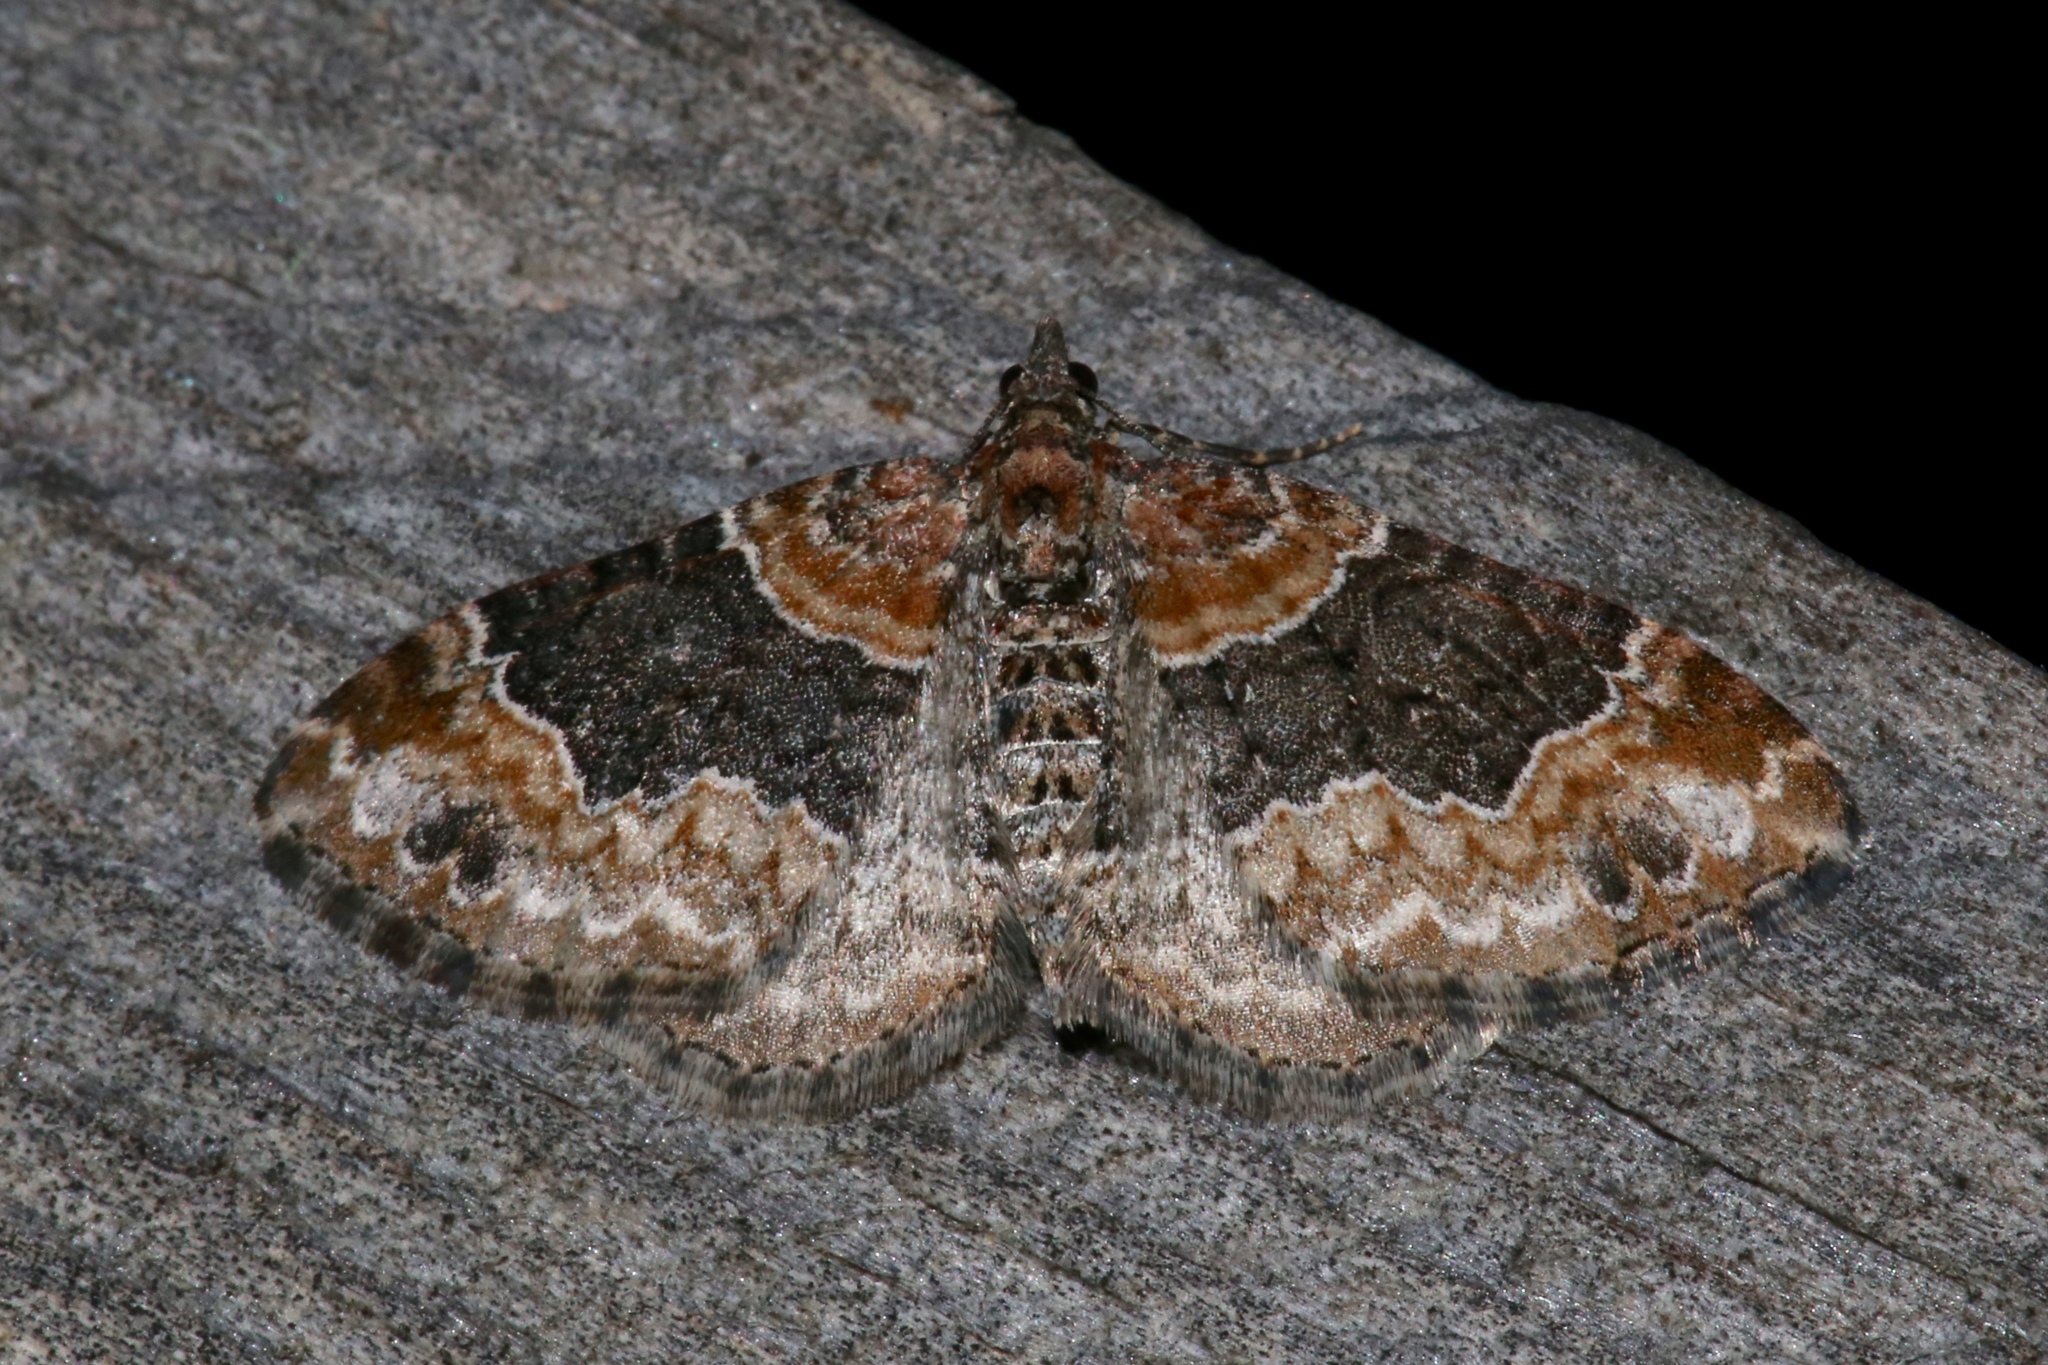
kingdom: Animalia
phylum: Arthropoda
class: Insecta
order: Lepidoptera
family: Geometridae
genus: Xanthorhoe
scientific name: Xanthorhoe ferrugata
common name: Dark-barred twin-spot carpet
